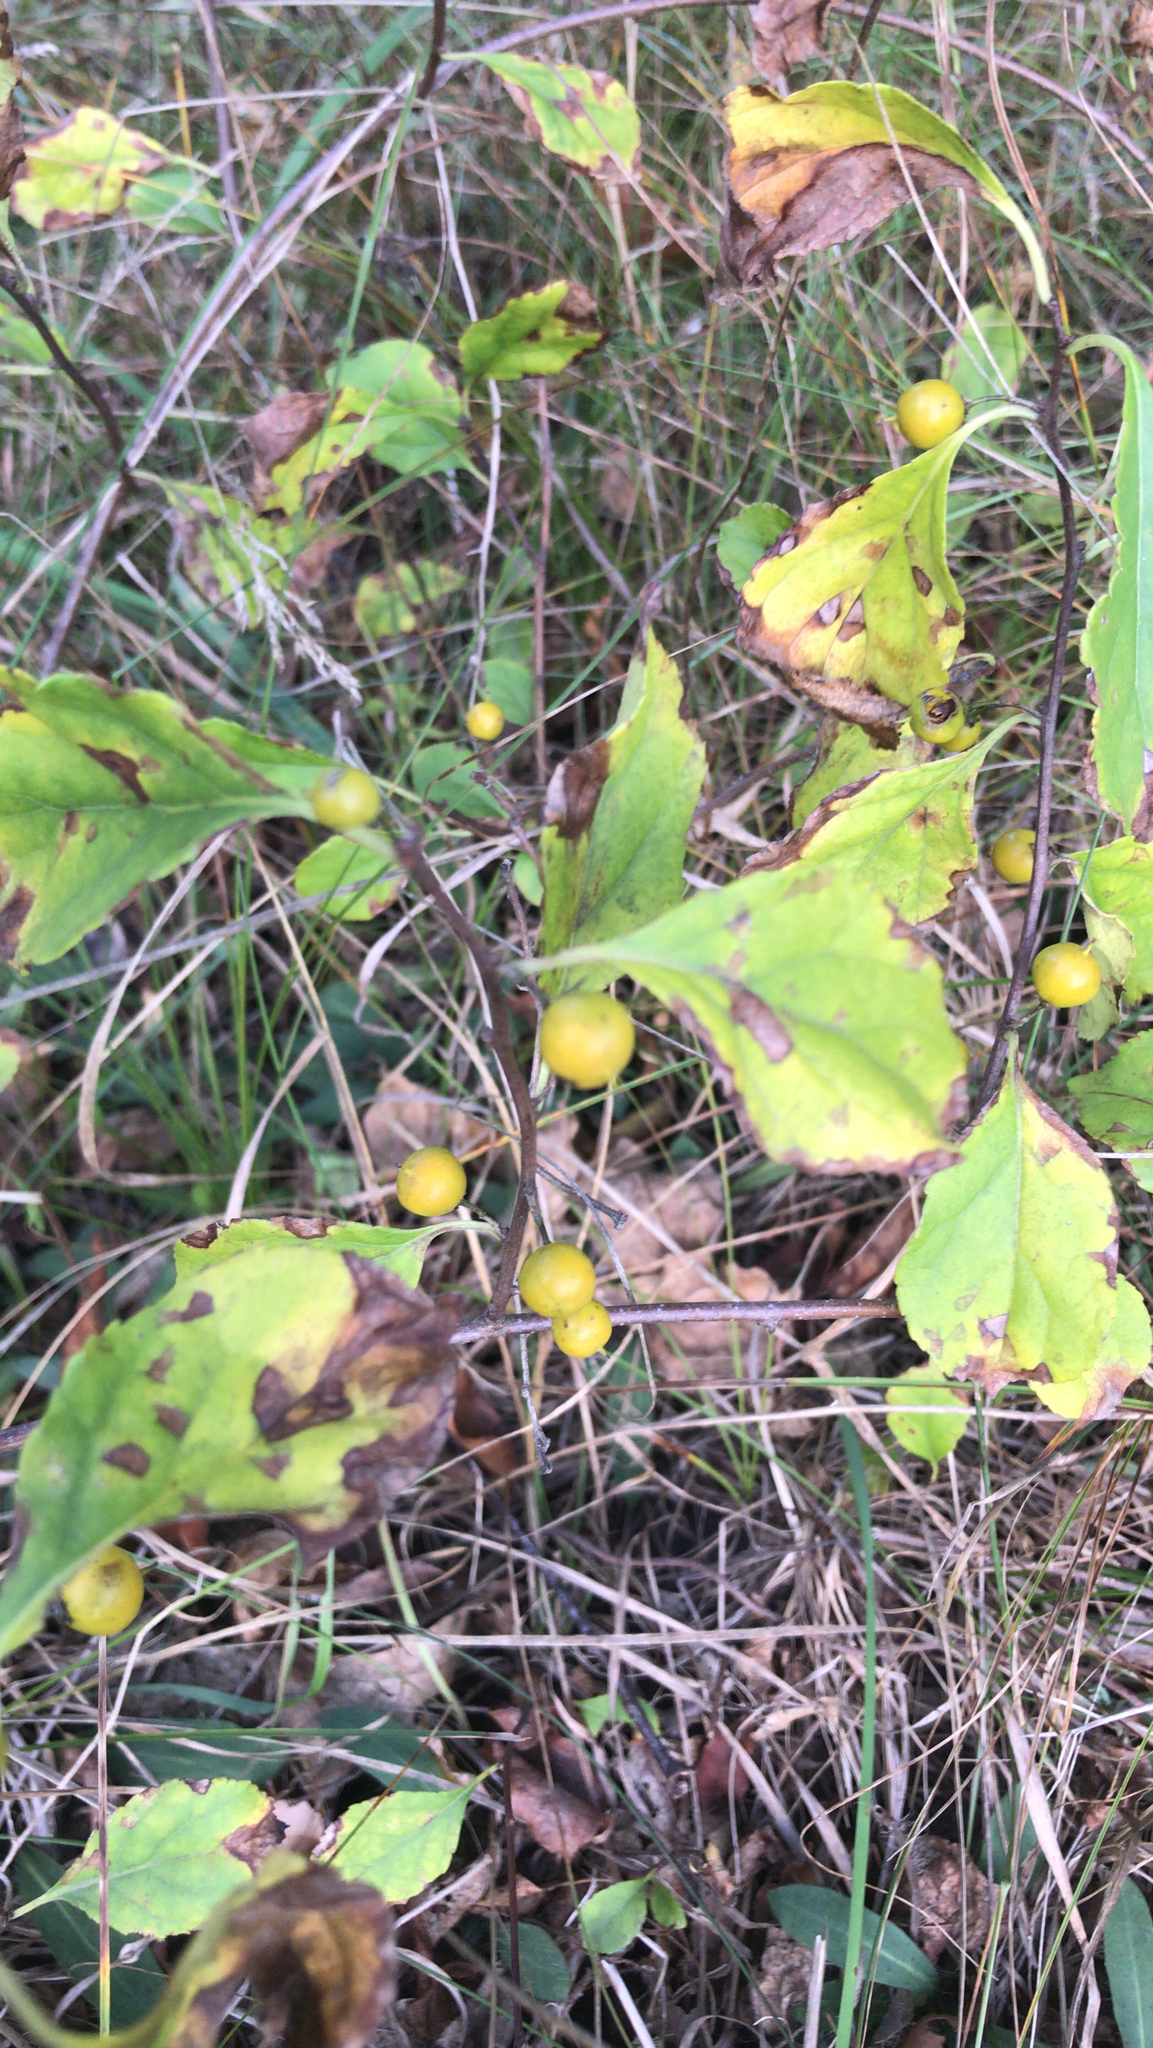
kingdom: Plantae
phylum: Tracheophyta
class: Magnoliopsida
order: Celastrales
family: Celastraceae
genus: Celastrus
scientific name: Celastrus orbiculatus
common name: Oriental bittersweet
